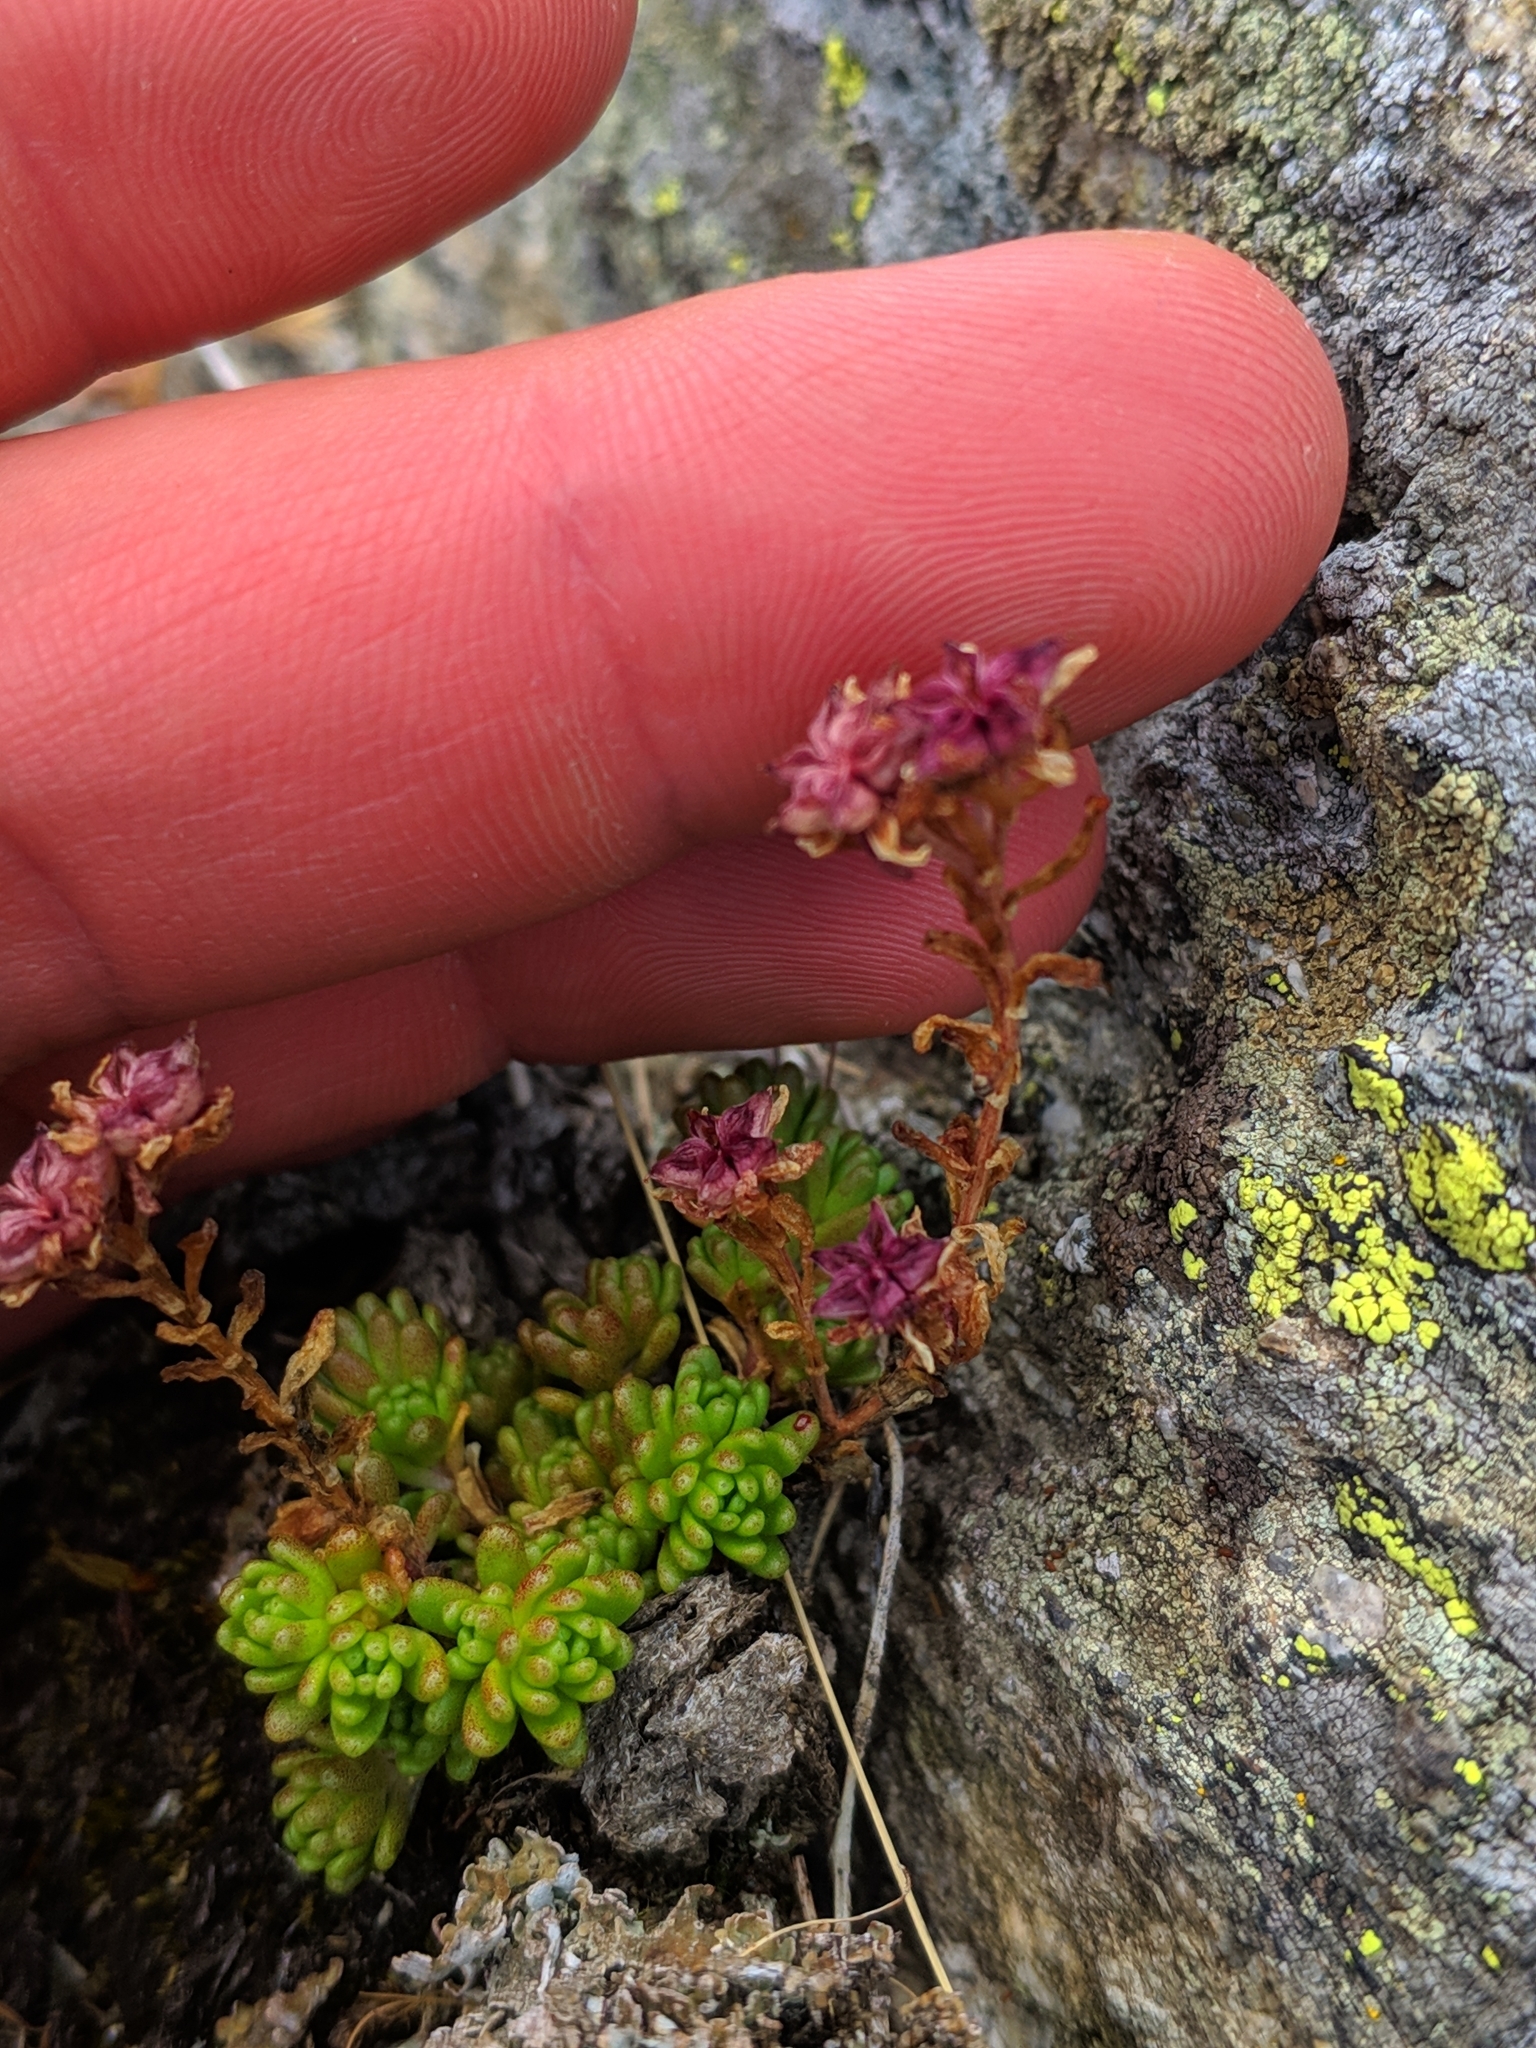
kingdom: Plantae
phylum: Tracheophyta
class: Magnoliopsida
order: Saxifragales
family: Crassulaceae
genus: Sedum
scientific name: Sedum alpestre
